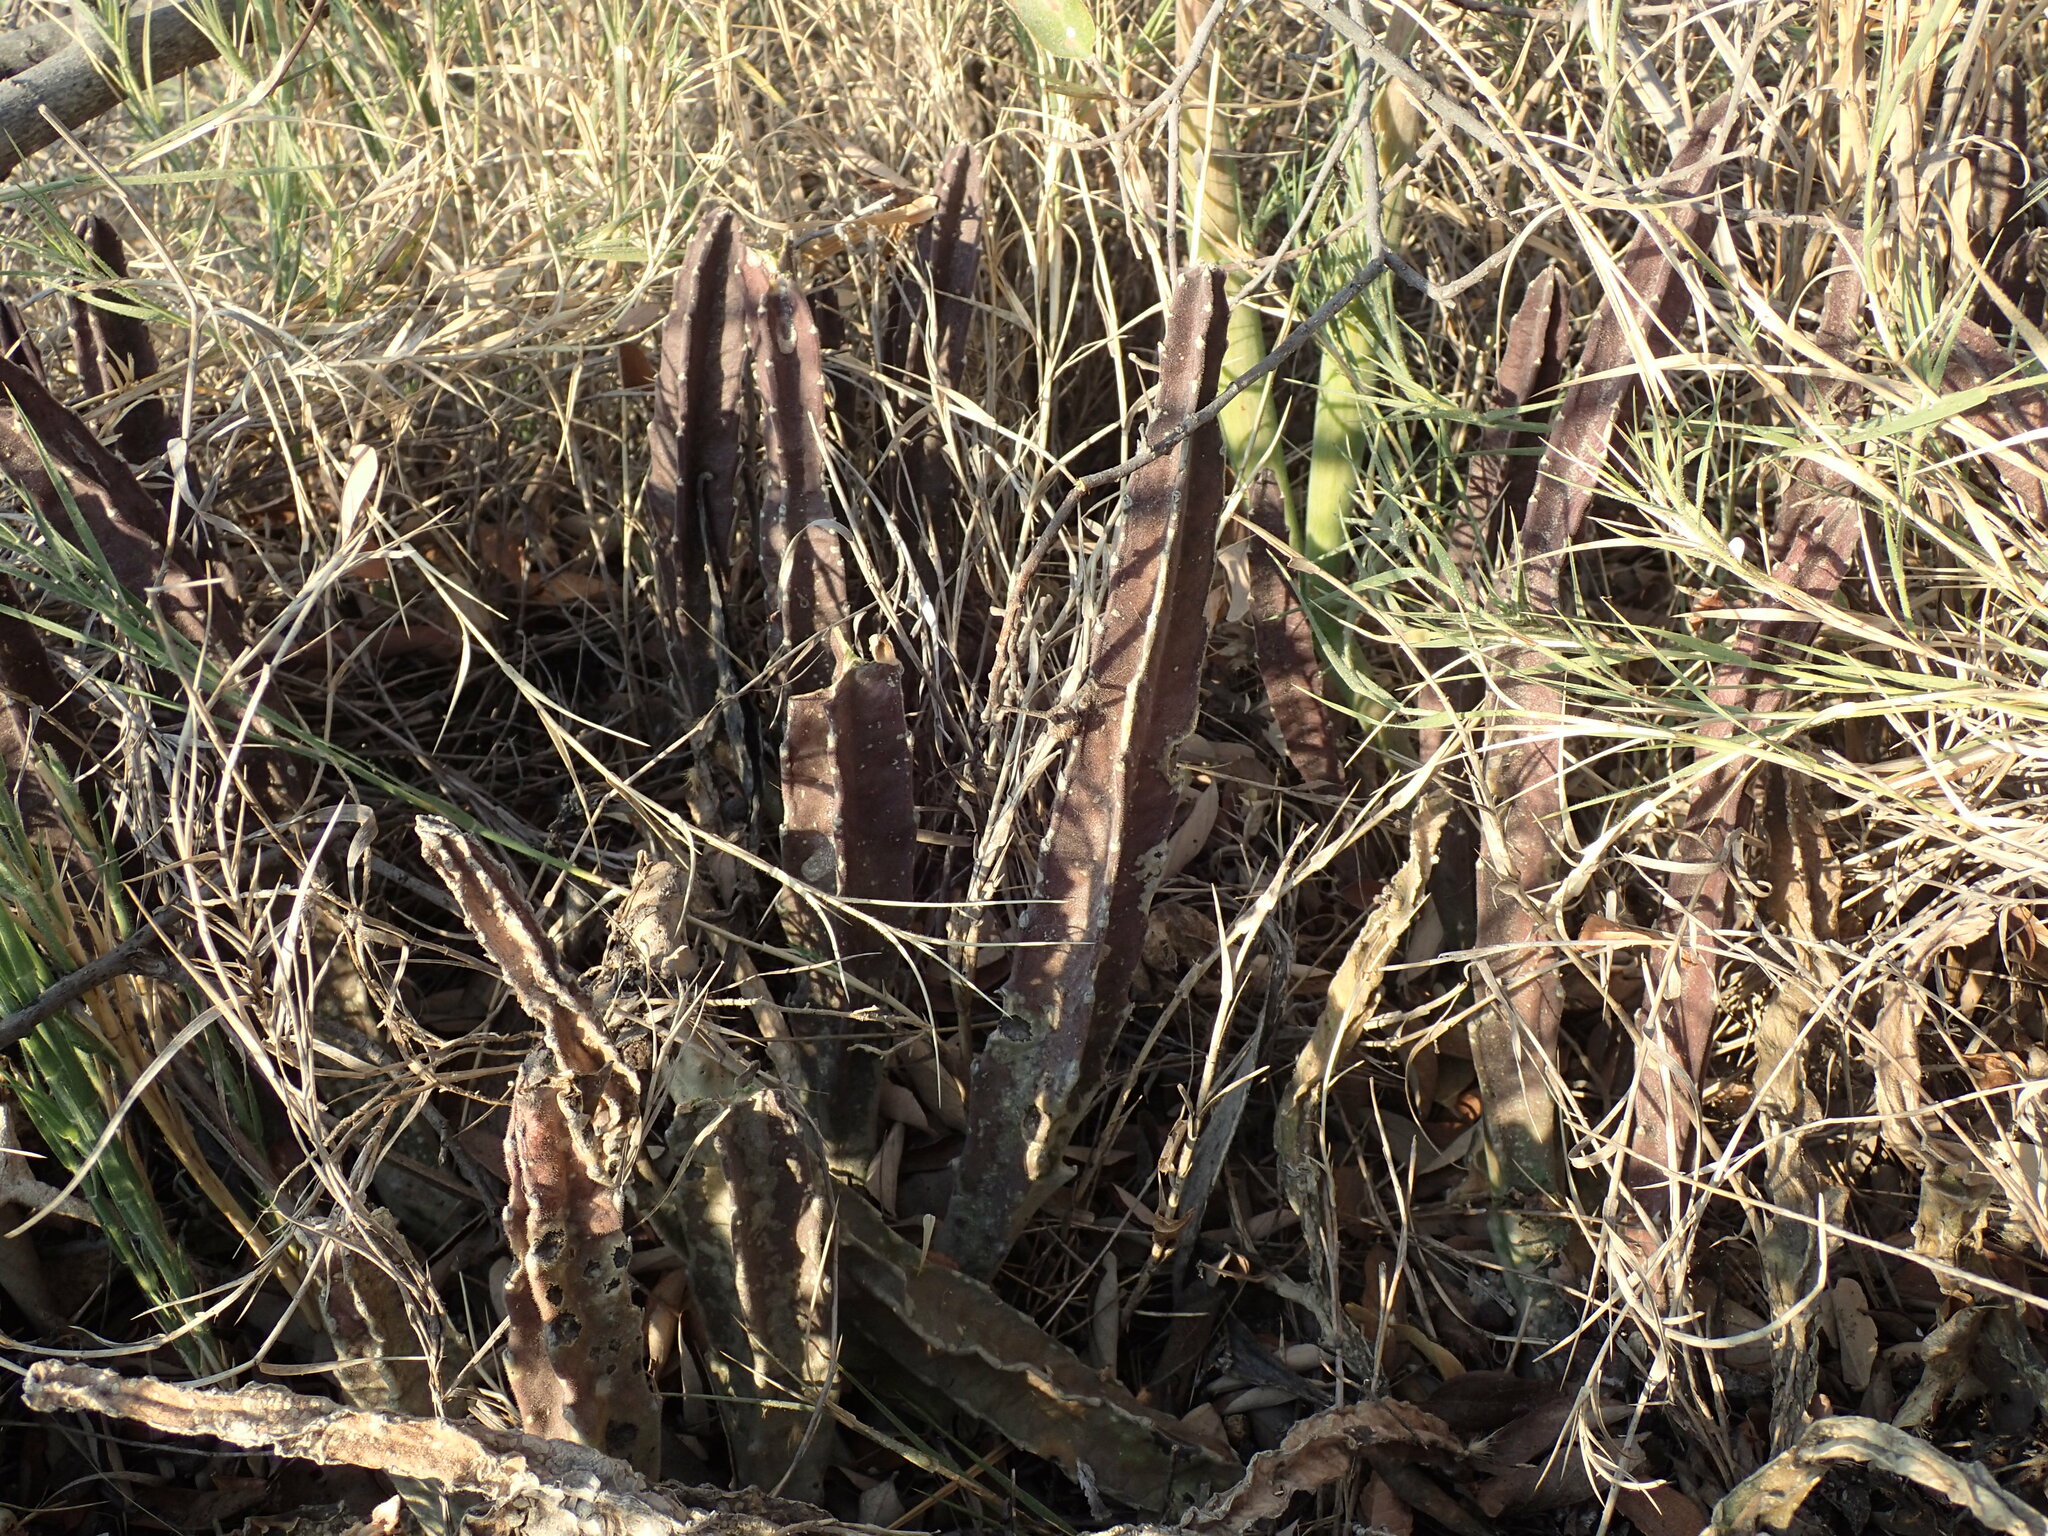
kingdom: Plantae
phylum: Tracheophyta
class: Magnoliopsida
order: Gentianales
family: Apocynaceae
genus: Ceropegia
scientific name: Ceropegia gigantea
